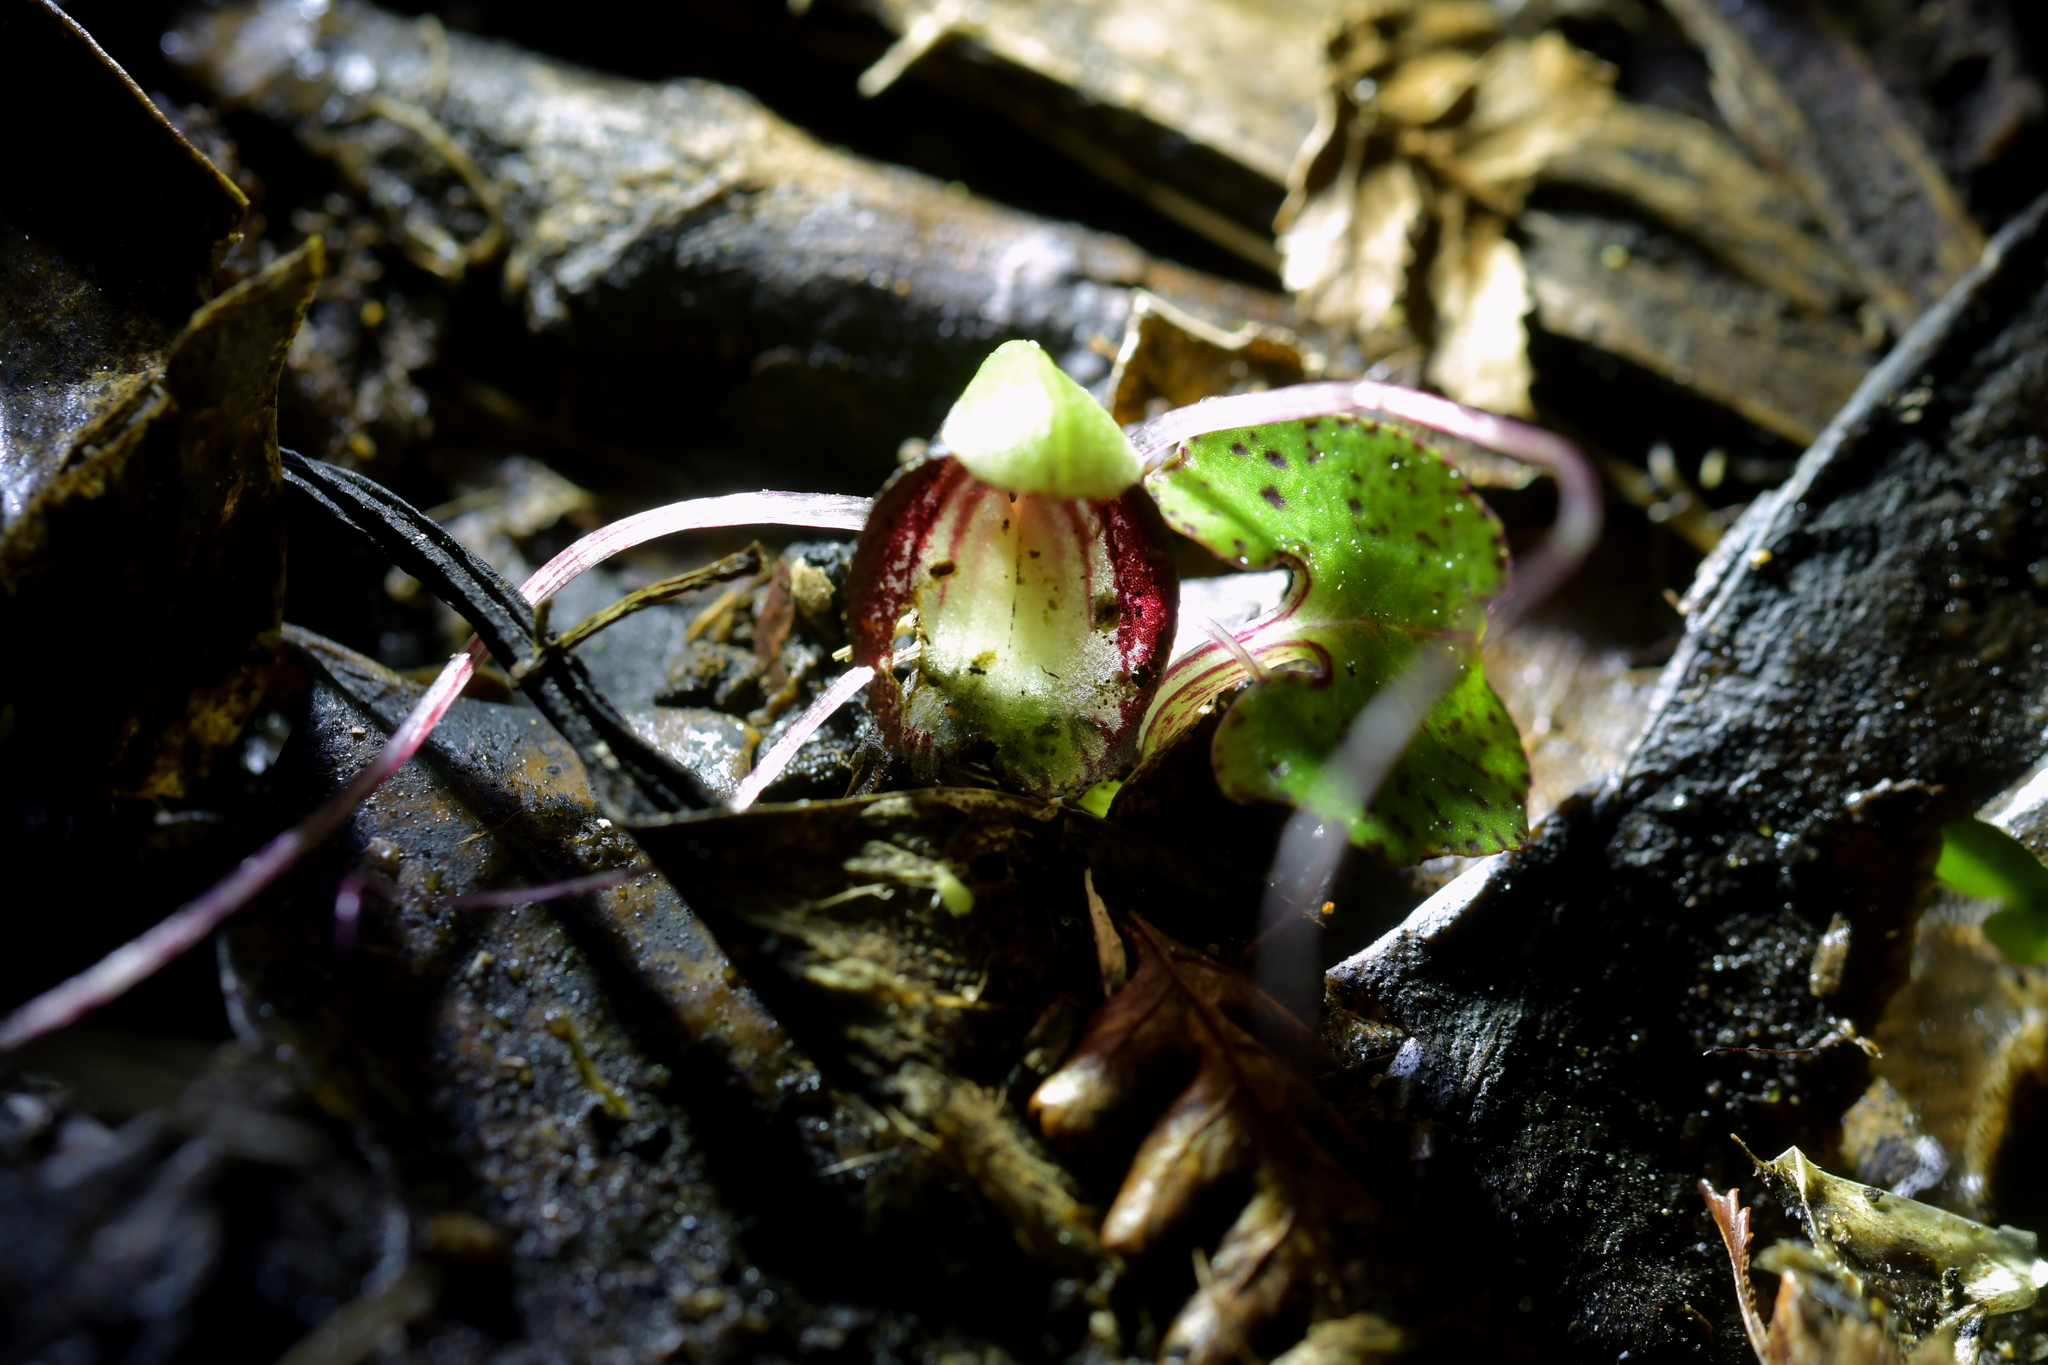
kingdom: Plantae
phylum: Tracheophyta
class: Liliopsida
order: Asparagales
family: Orchidaceae
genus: Corybas
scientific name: Corybas sanctigeorgianus
